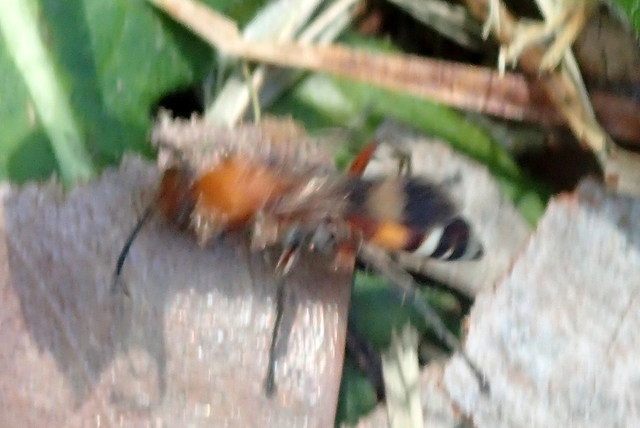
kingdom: Animalia
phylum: Arthropoda
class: Insecta
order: Hymenoptera
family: Pompilidae
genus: Psorthaspis
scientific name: Psorthaspis legata
